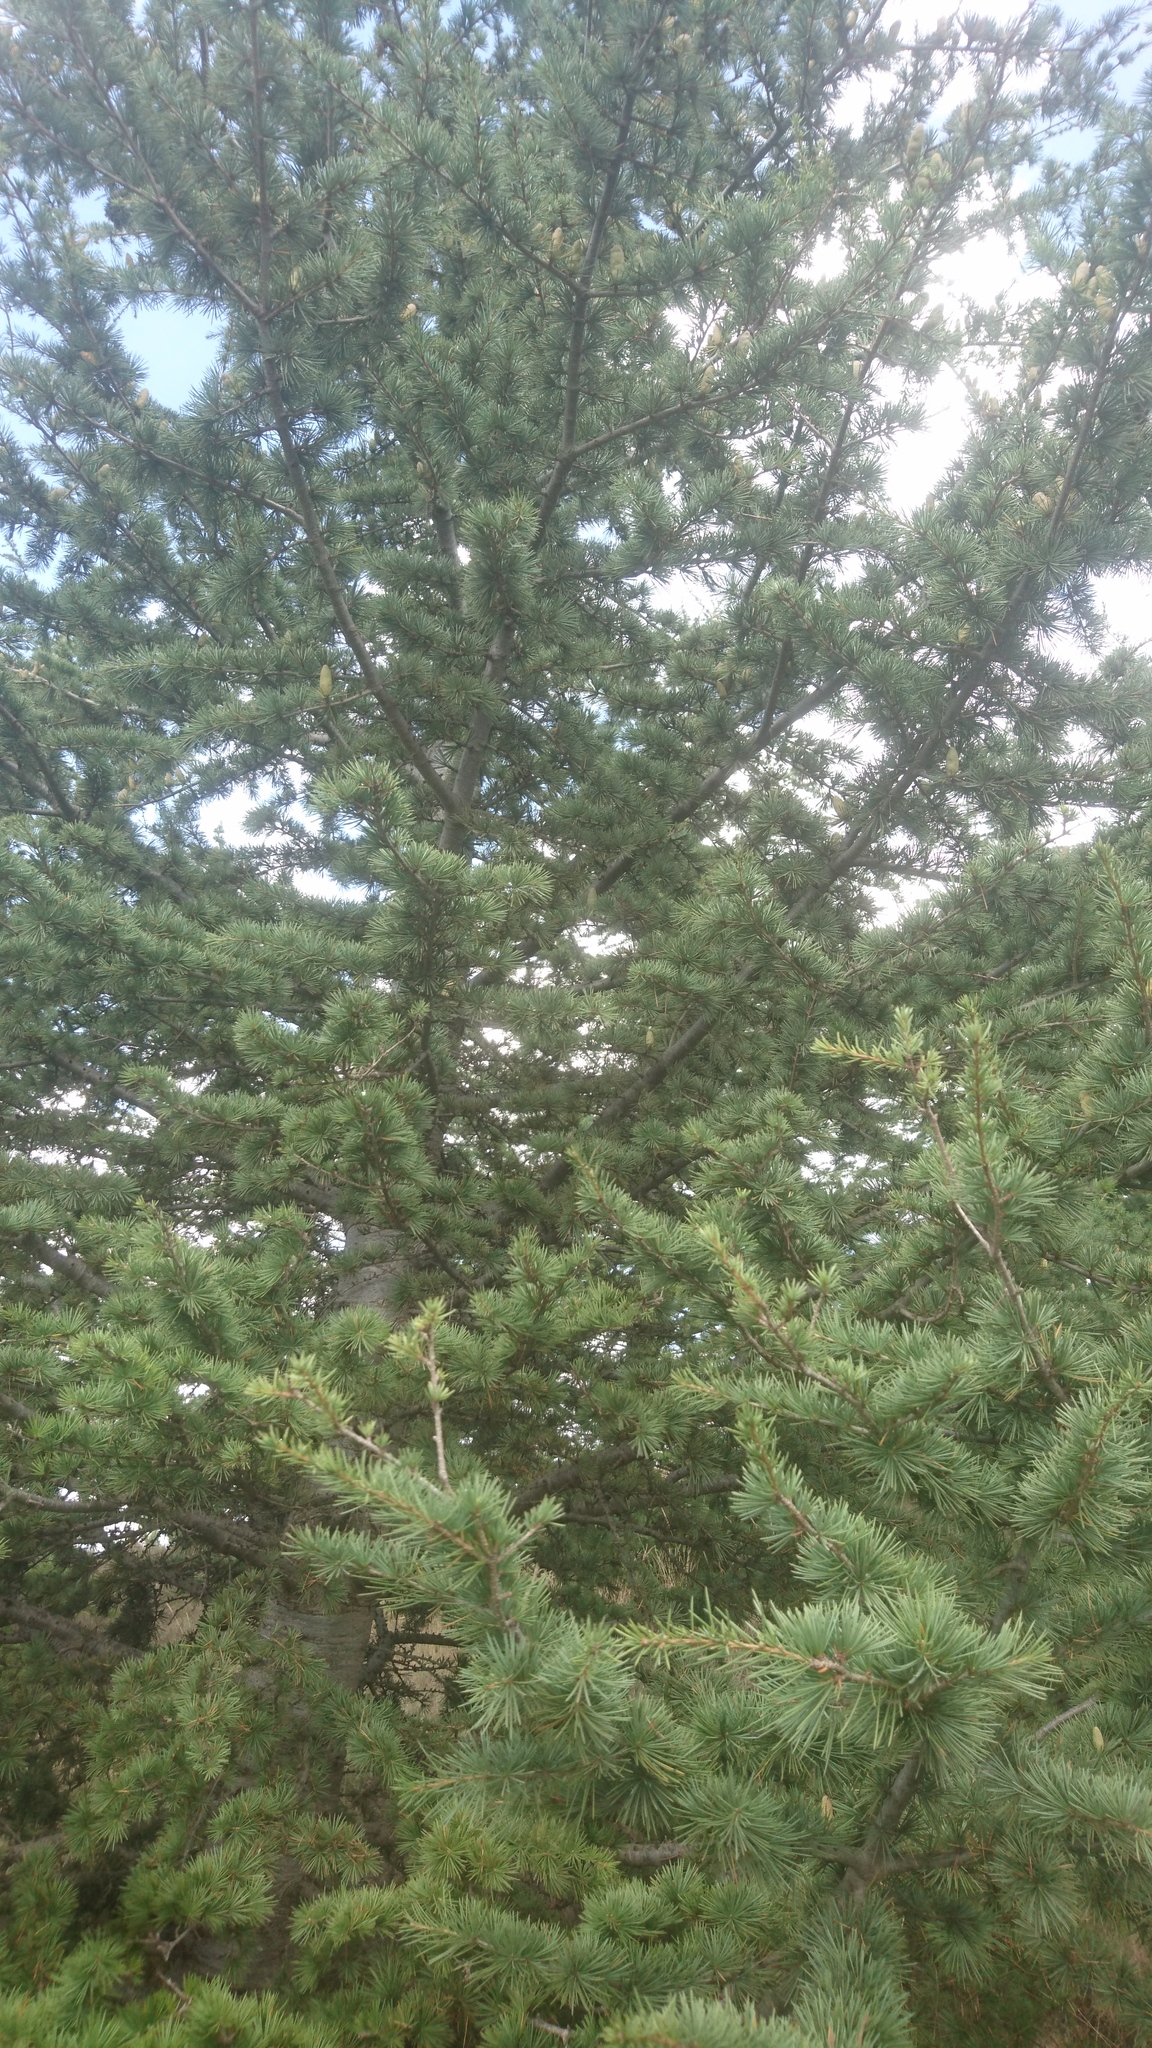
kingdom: Plantae
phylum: Tracheophyta
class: Pinopsida
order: Pinales
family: Pinaceae
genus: Cedrus
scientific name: Cedrus libani
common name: Cedar-of-lebanon
